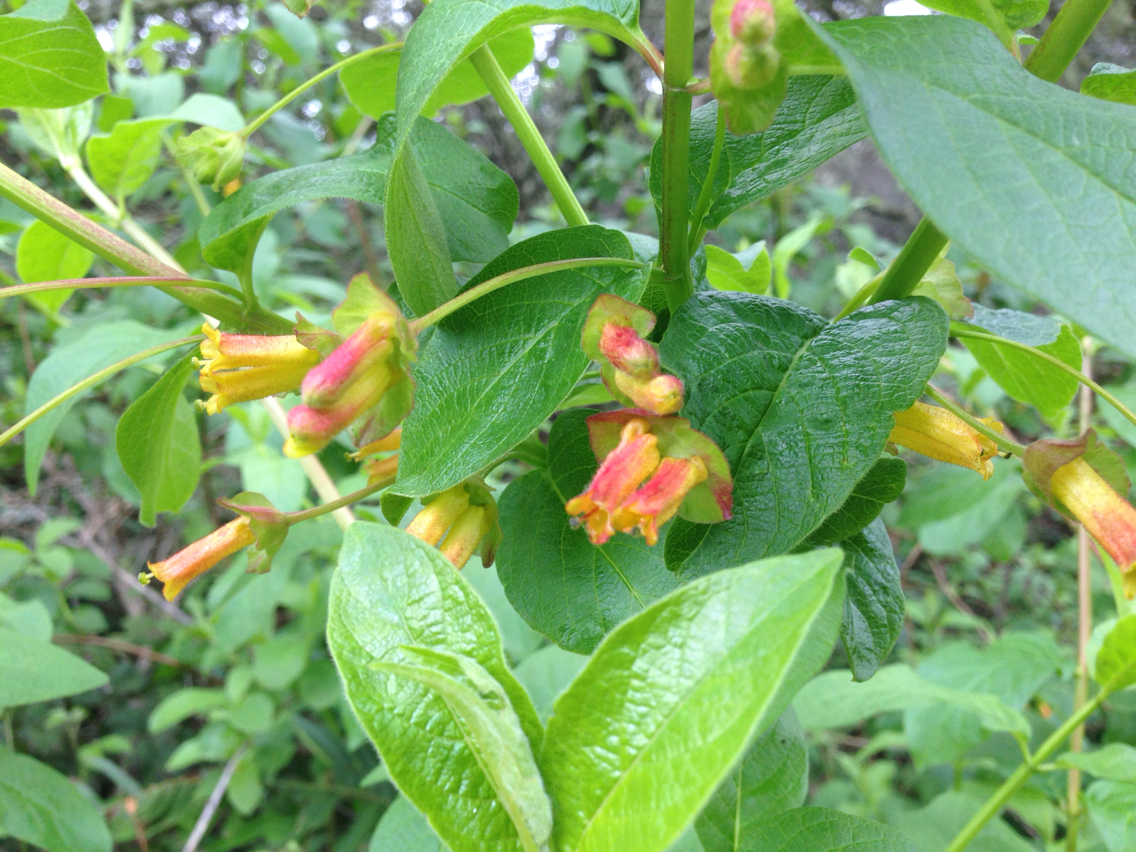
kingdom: Plantae
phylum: Tracheophyta
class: Magnoliopsida
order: Dipsacales
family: Caprifoliaceae
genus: Lonicera
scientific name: Lonicera involucrata
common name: Californian honeysuckle
